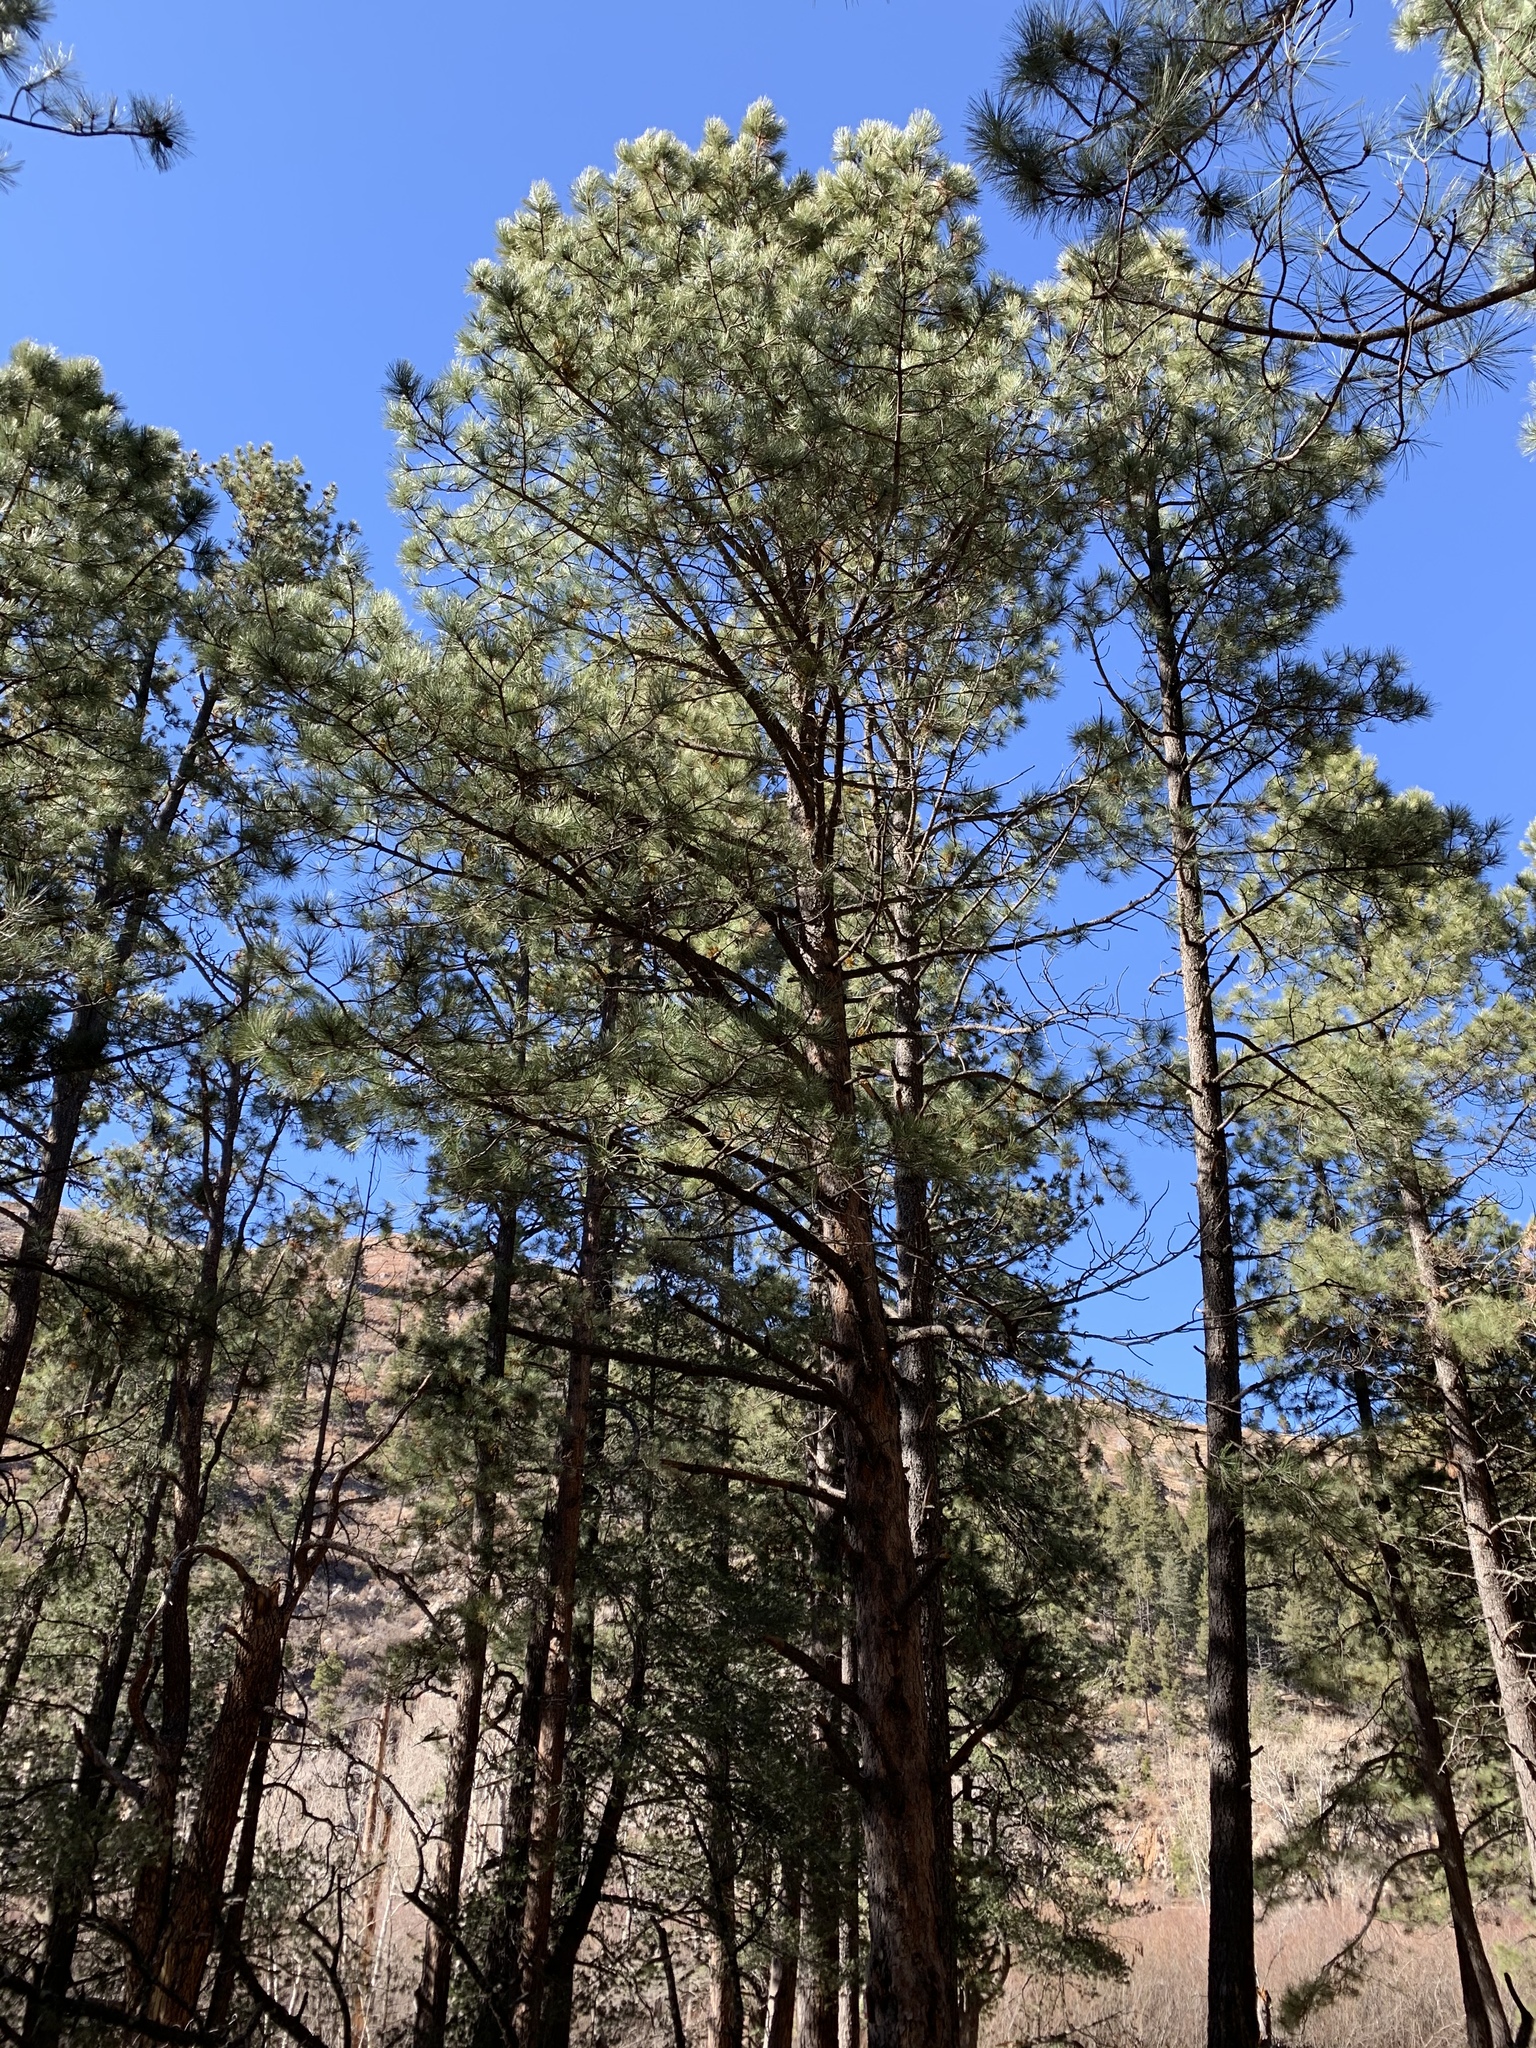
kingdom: Plantae
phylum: Tracheophyta
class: Pinopsida
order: Pinales
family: Pinaceae
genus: Pinus
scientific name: Pinus ponderosa
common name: Western yellow-pine
